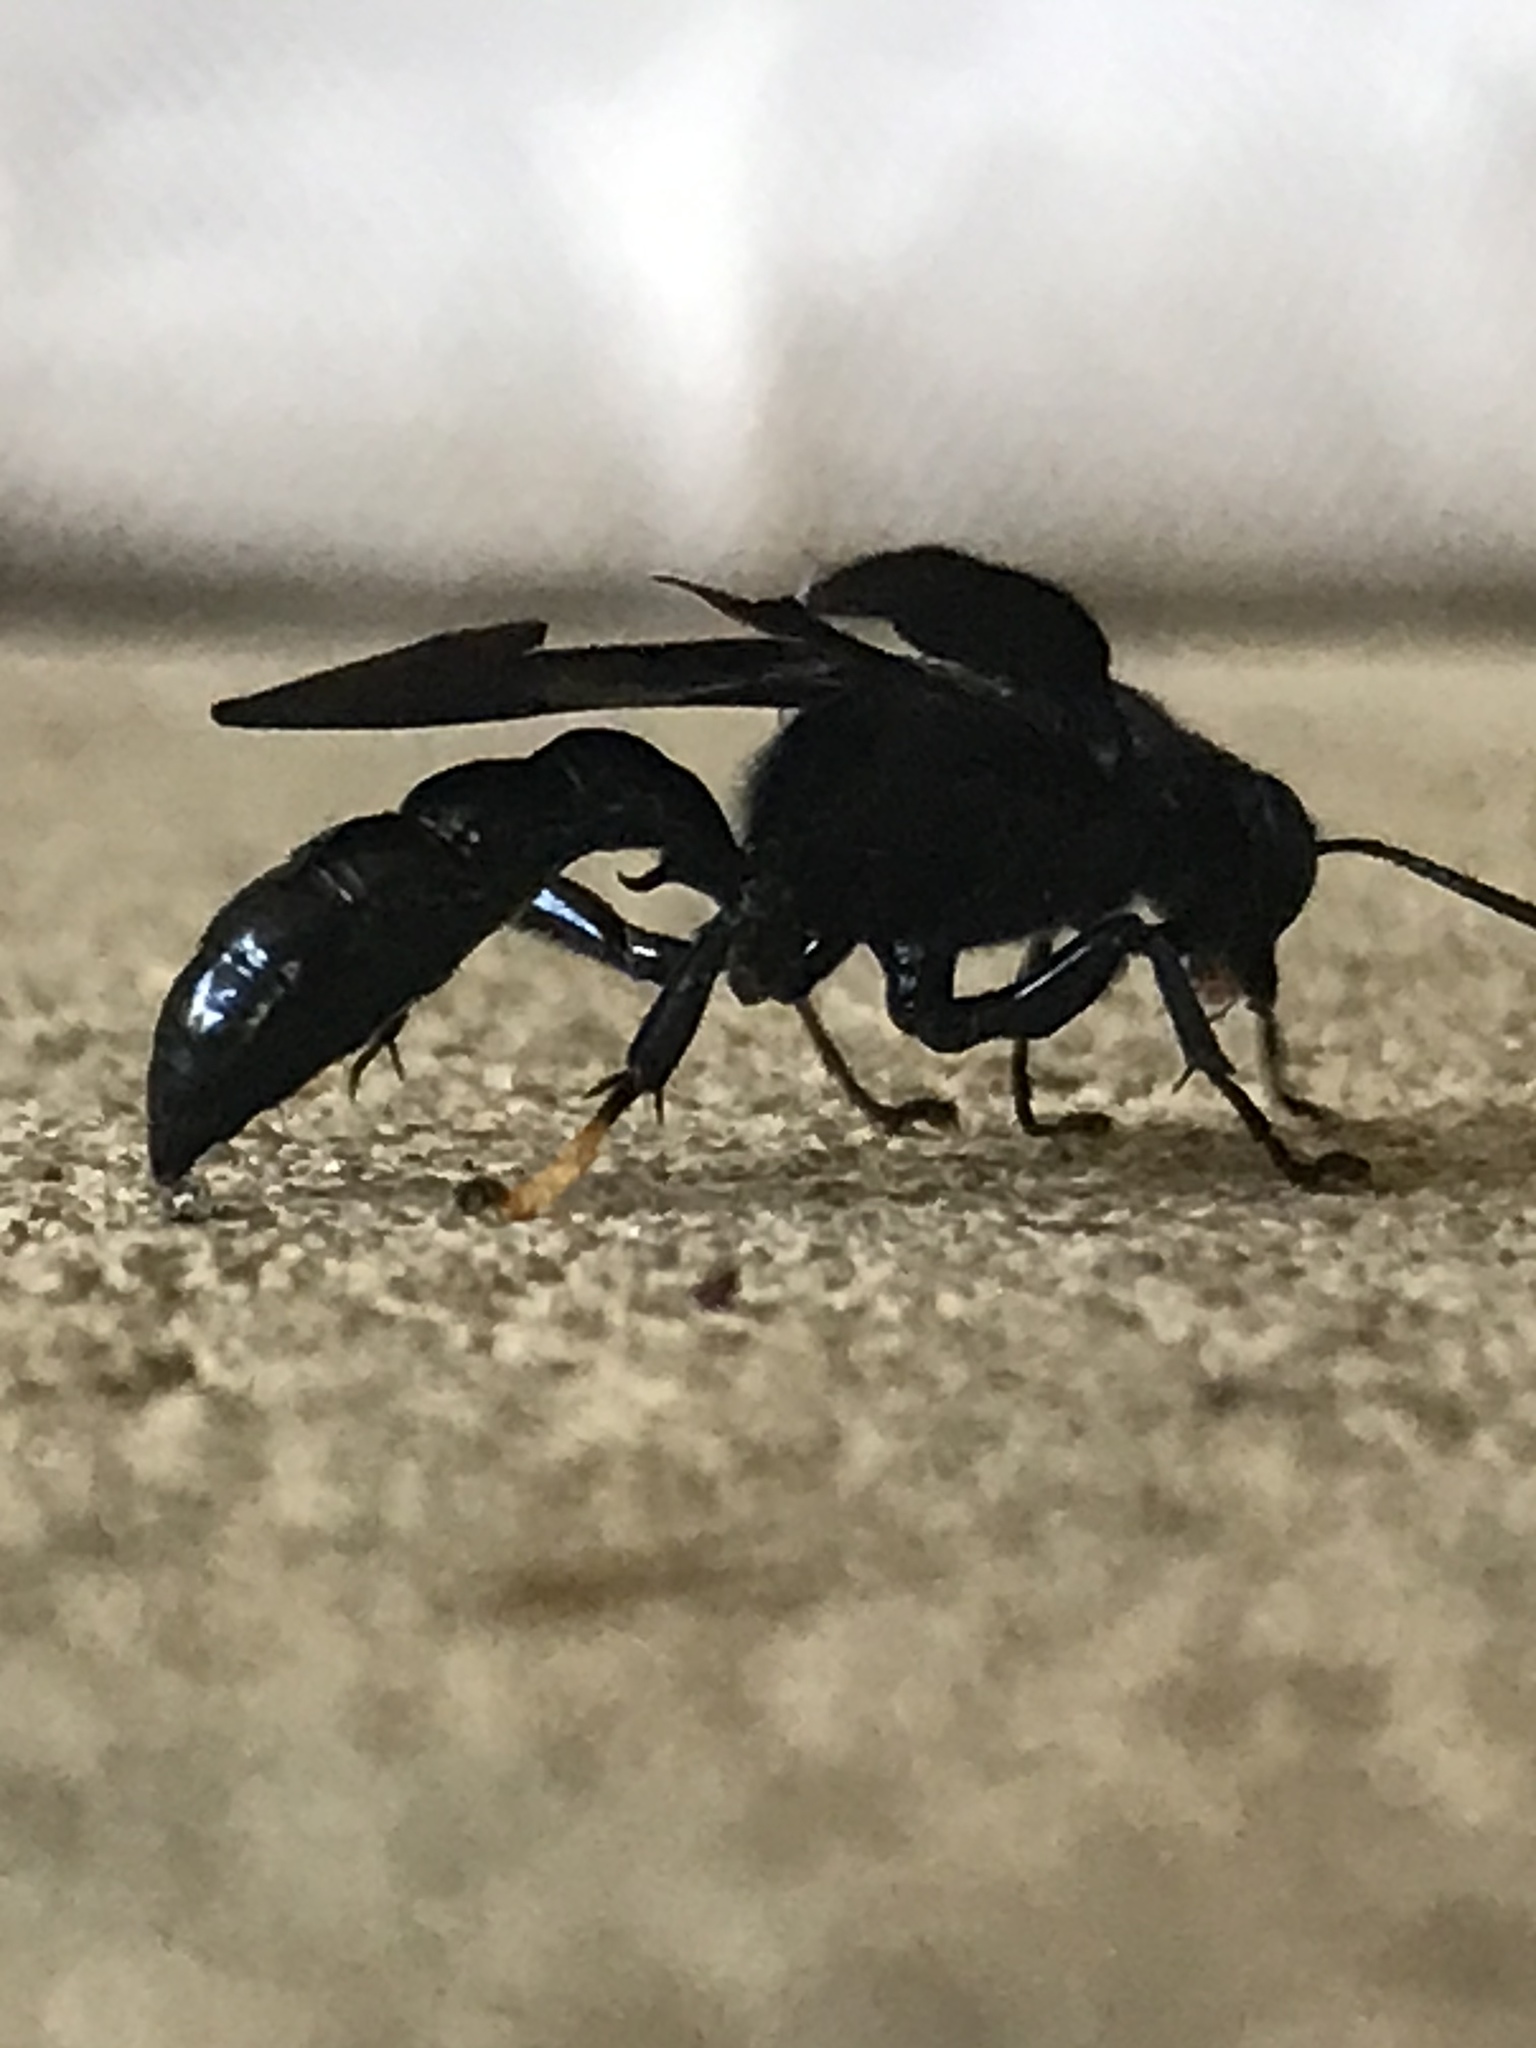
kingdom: Animalia
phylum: Arthropoda
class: Insecta
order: Hymenoptera
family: Crabronidae
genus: Trypoxylon
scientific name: Trypoxylon politum
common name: Organ-pipe mud-dauber wasp
